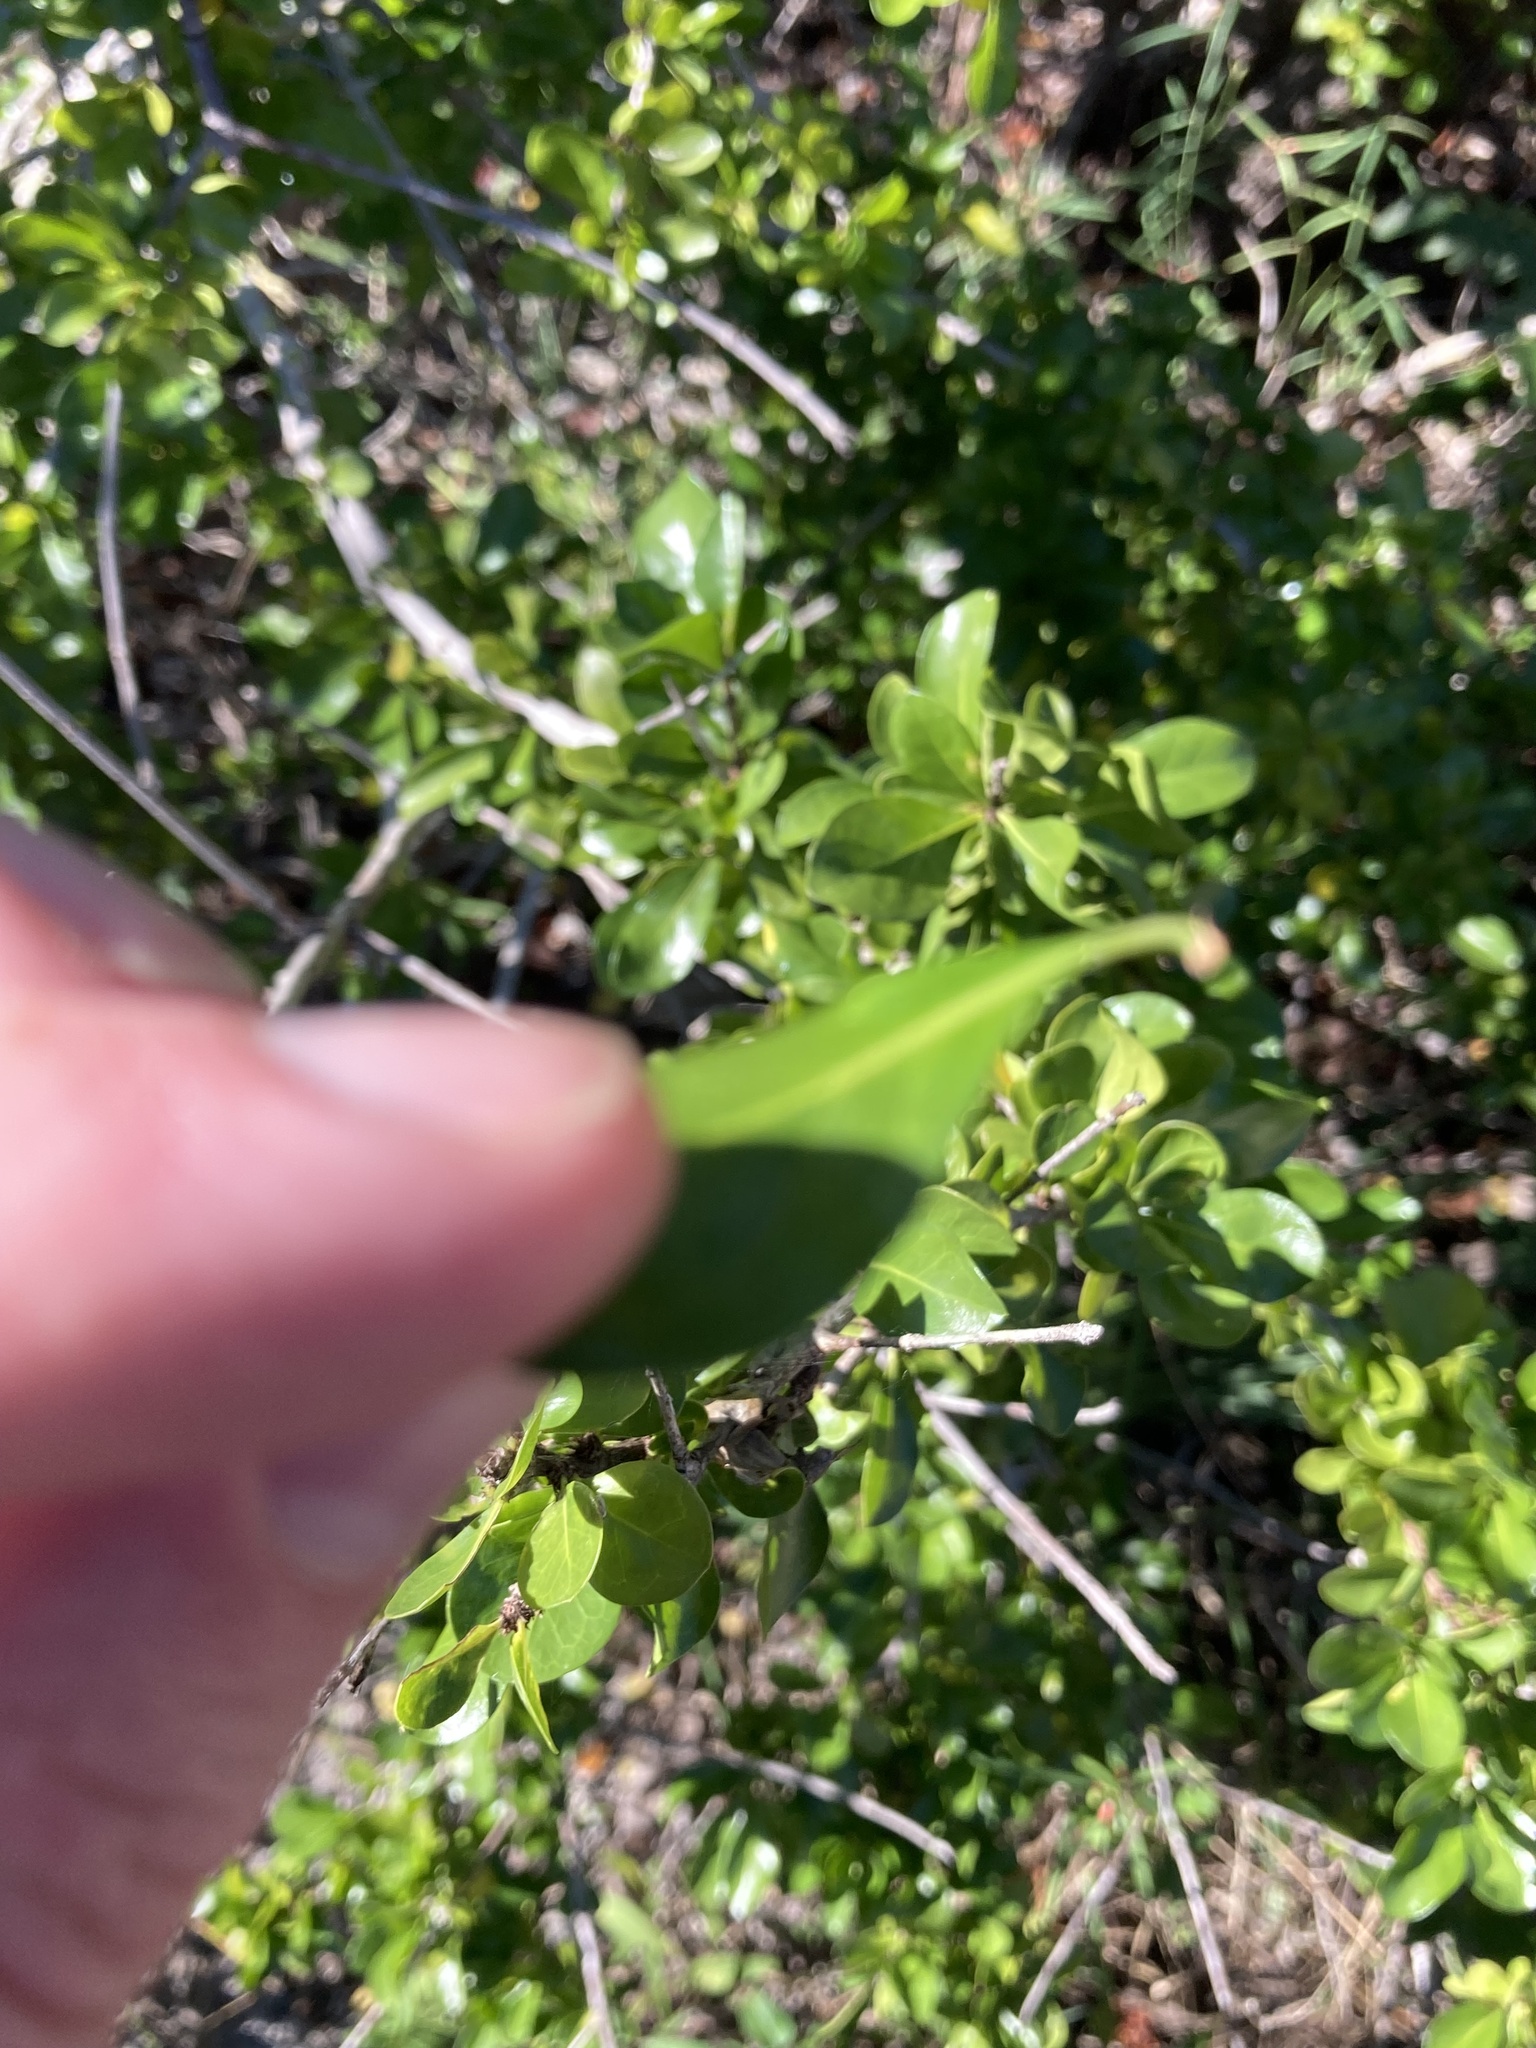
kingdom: Plantae
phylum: Tracheophyta
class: Magnoliopsida
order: Gentianales
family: Rubiaceae
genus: Randia
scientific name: Randia aculeata
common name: Inkberry
